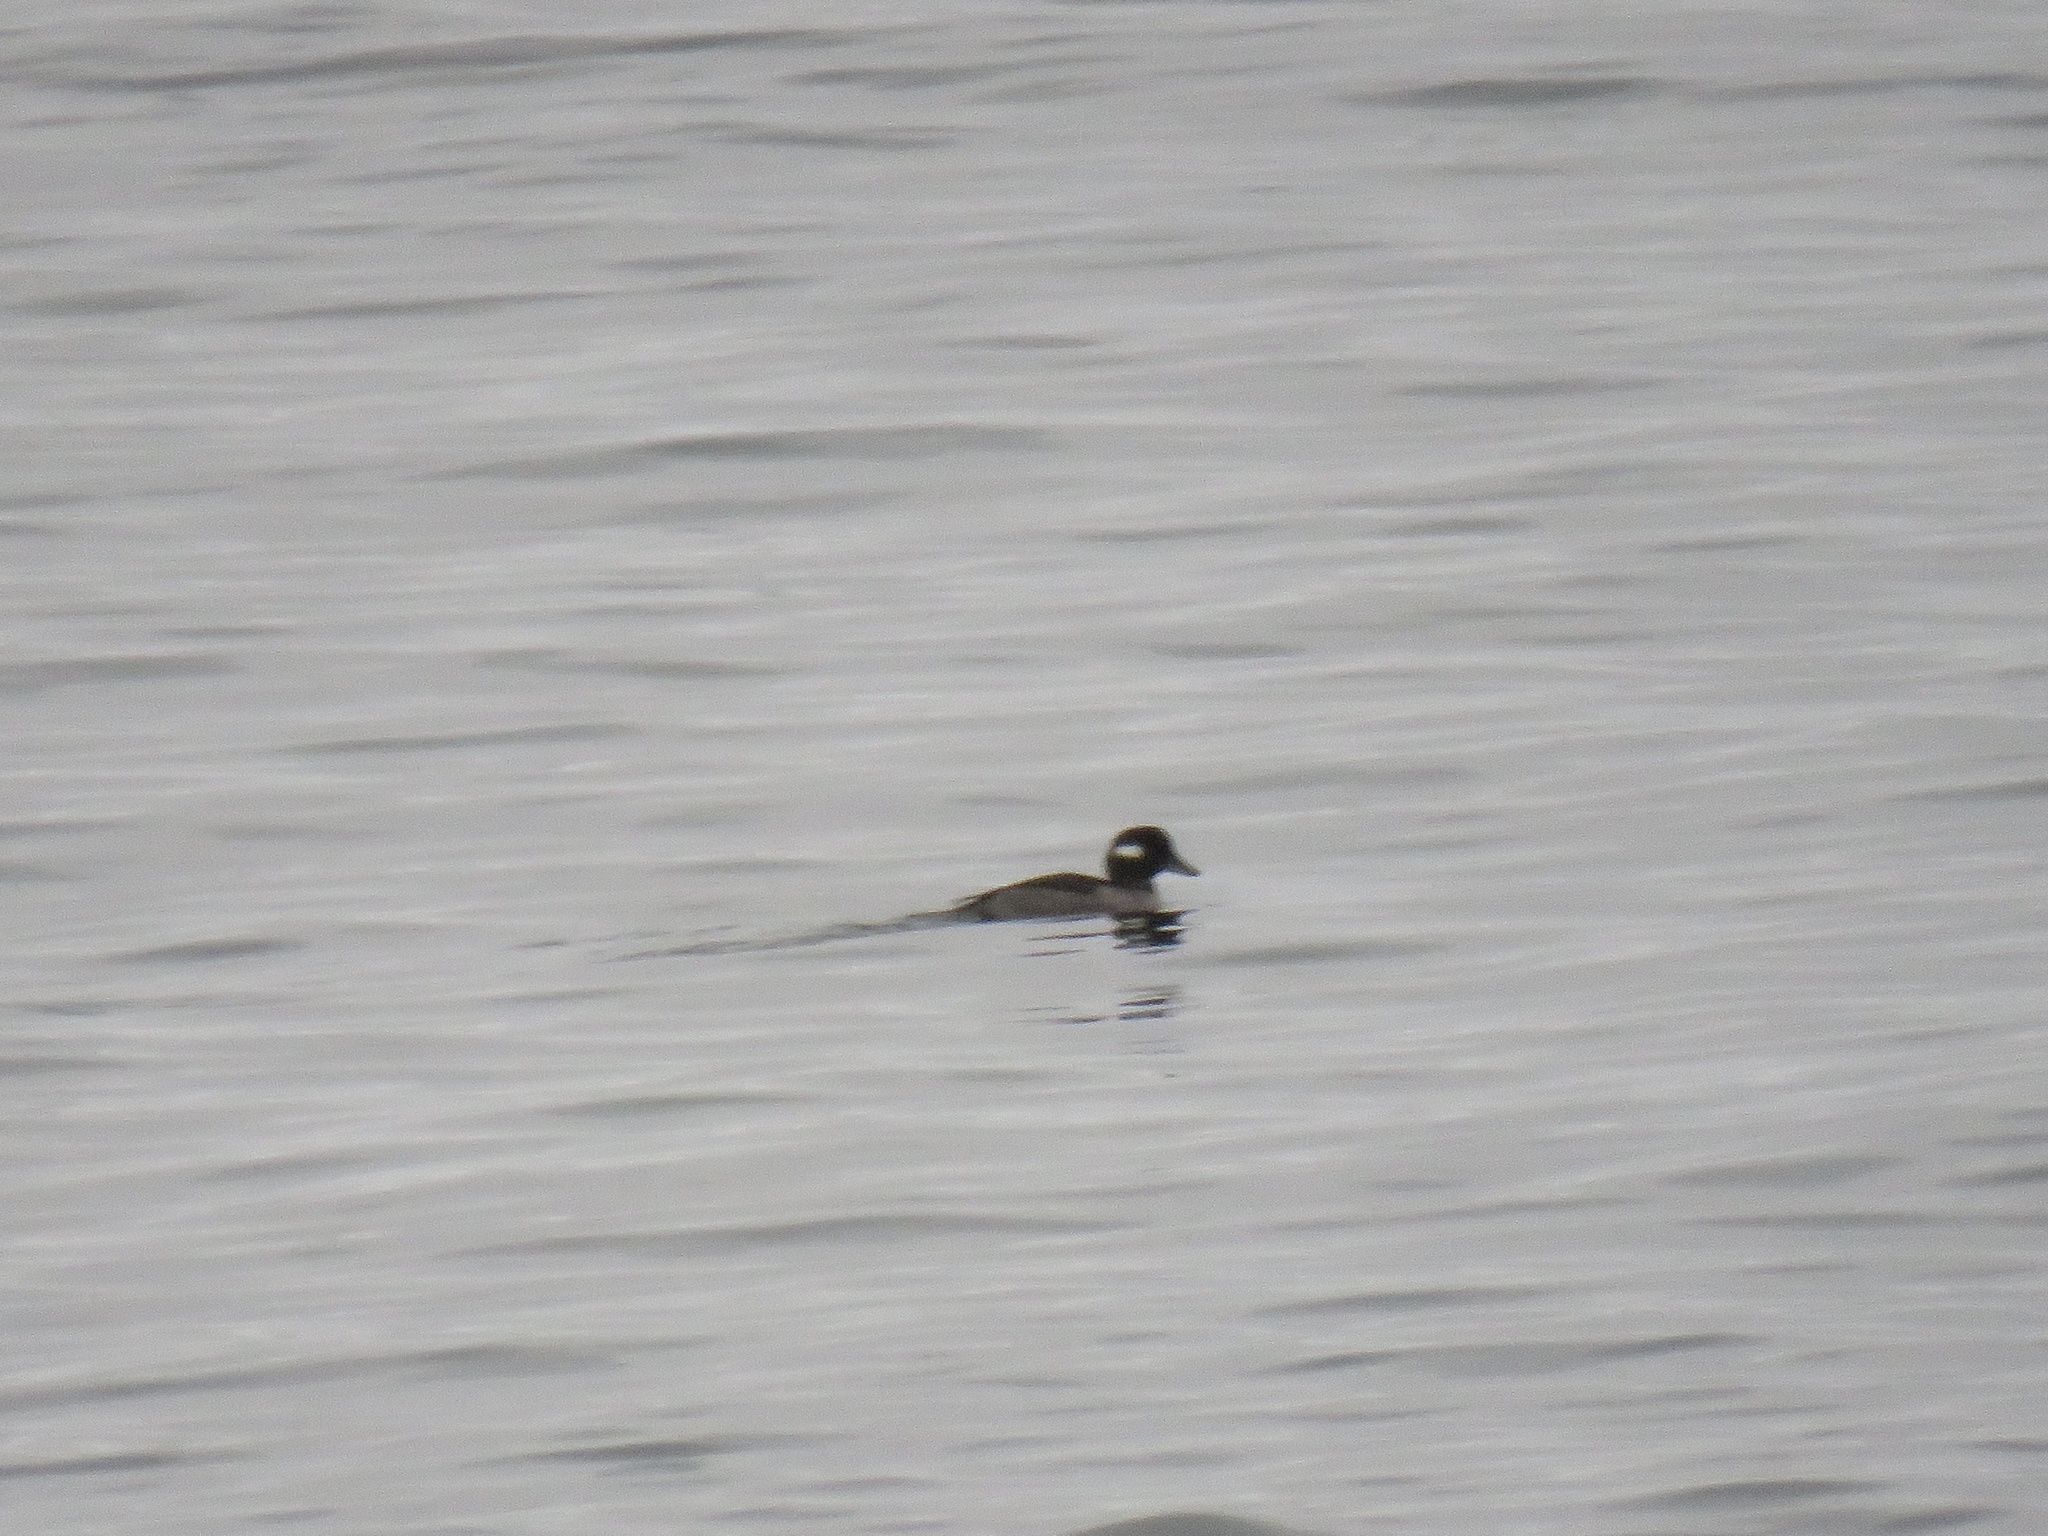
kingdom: Animalia
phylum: Chordata
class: Aves
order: Anseriformes
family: Anatidae
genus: Bucephala
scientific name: Bucephala albeola
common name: Bufflehead
